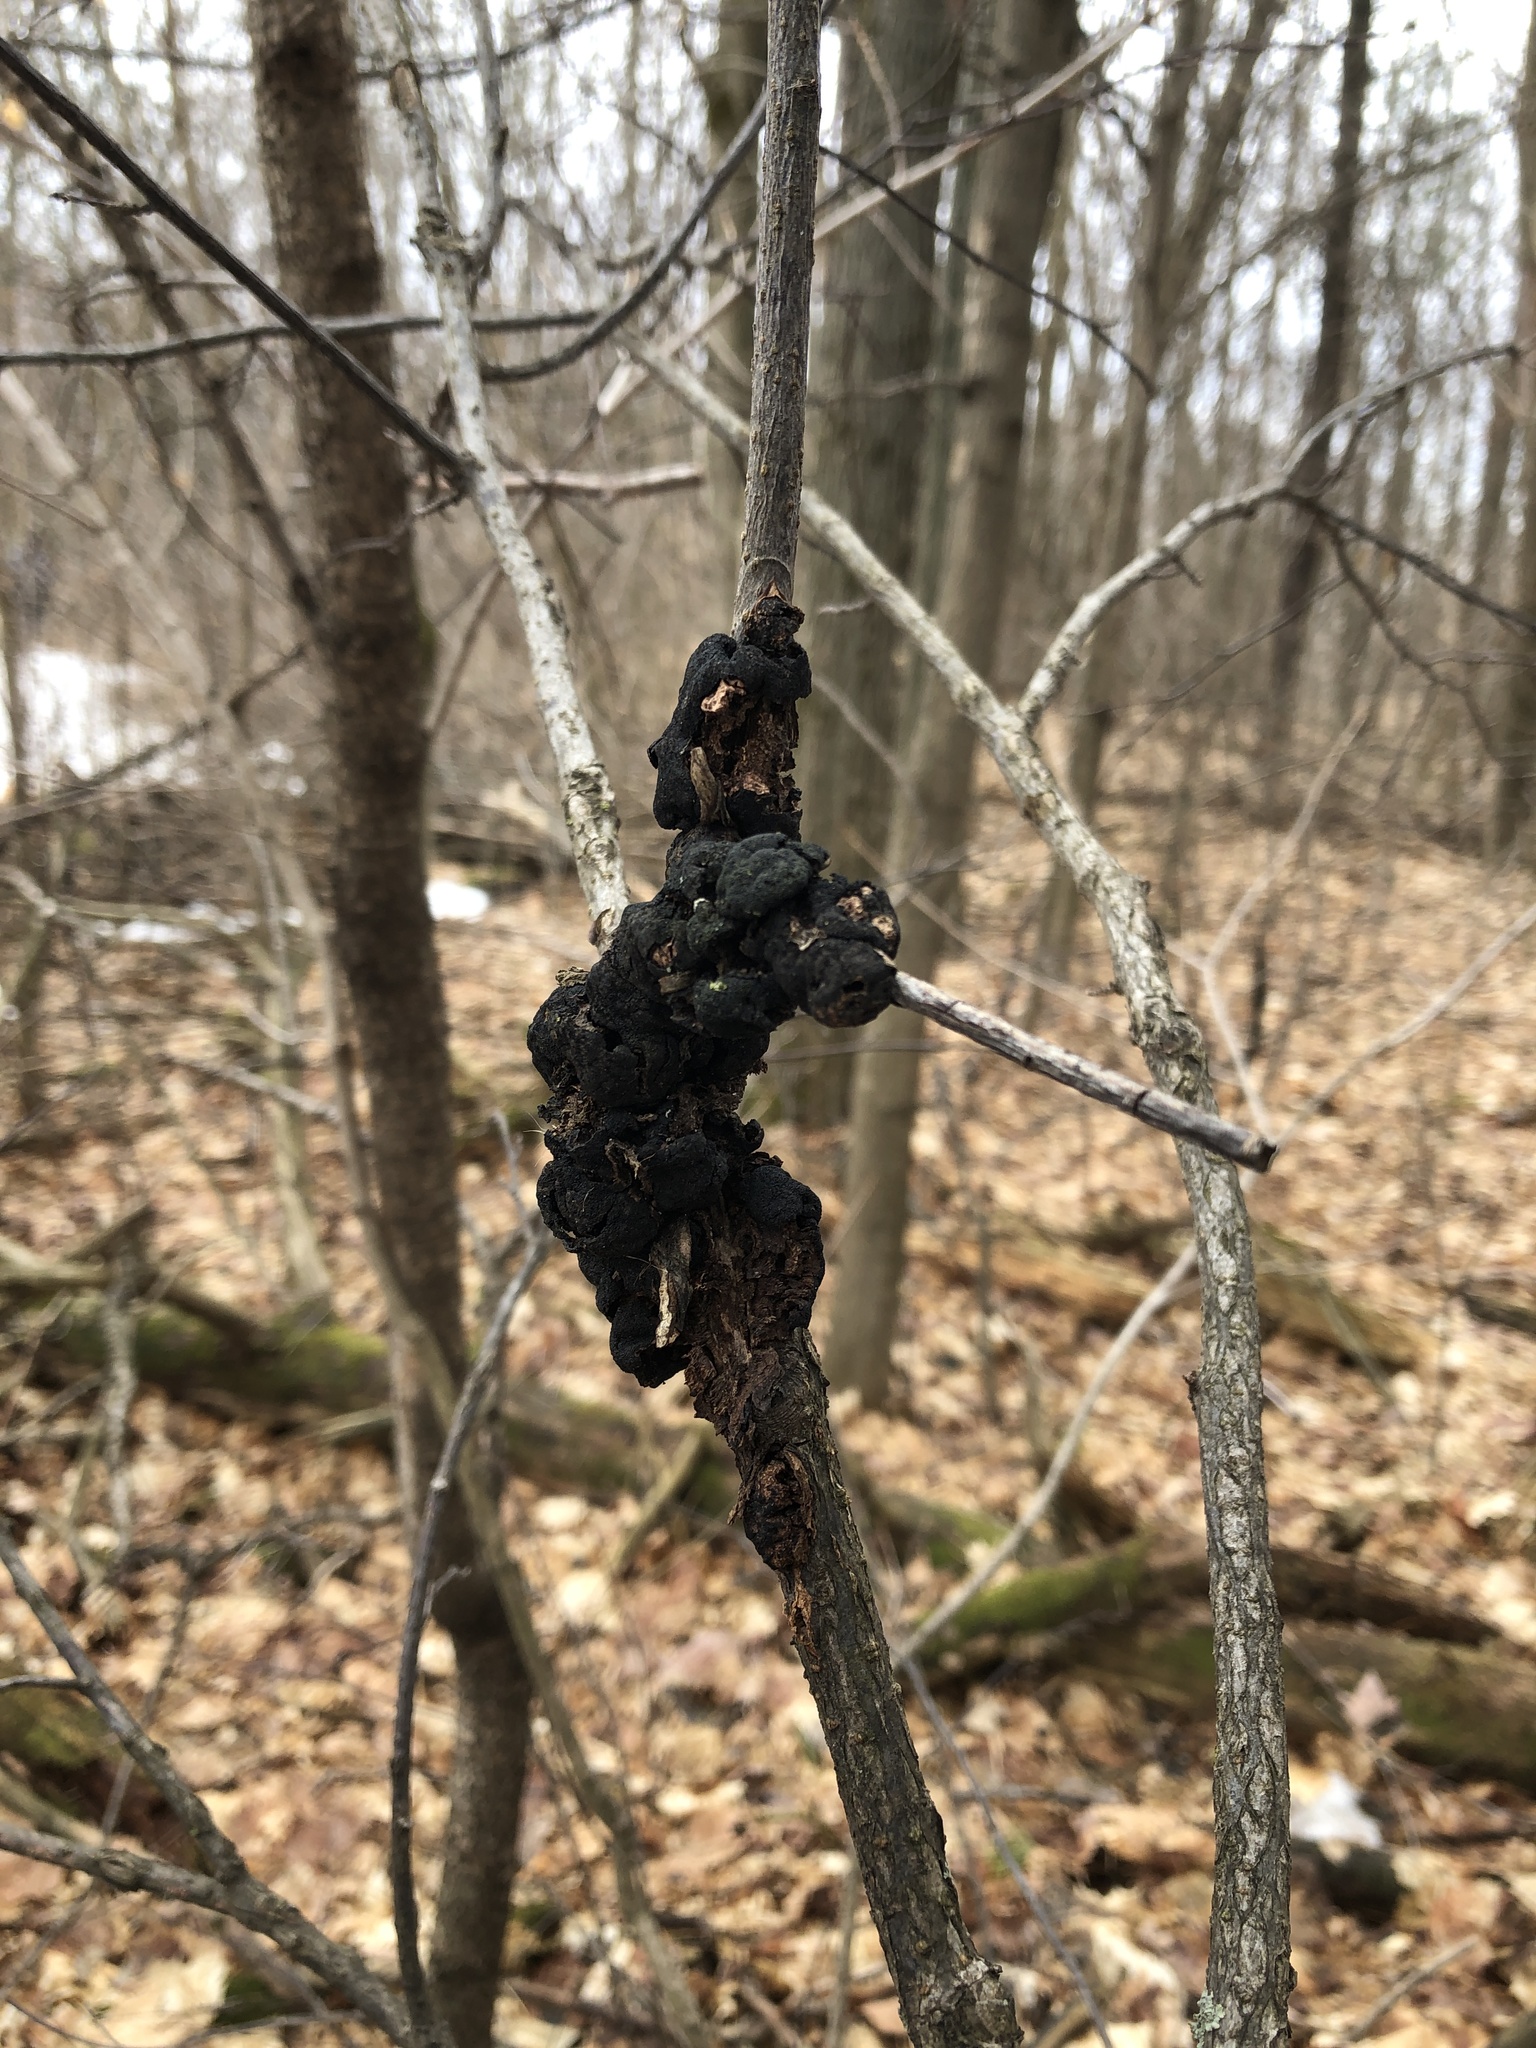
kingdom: Fungi
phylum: Ascomycota
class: Dothideomycetes
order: Venturiales
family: Venturiaceae
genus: Apiosporina
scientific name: Apiosporina morbosa
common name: Black knot
